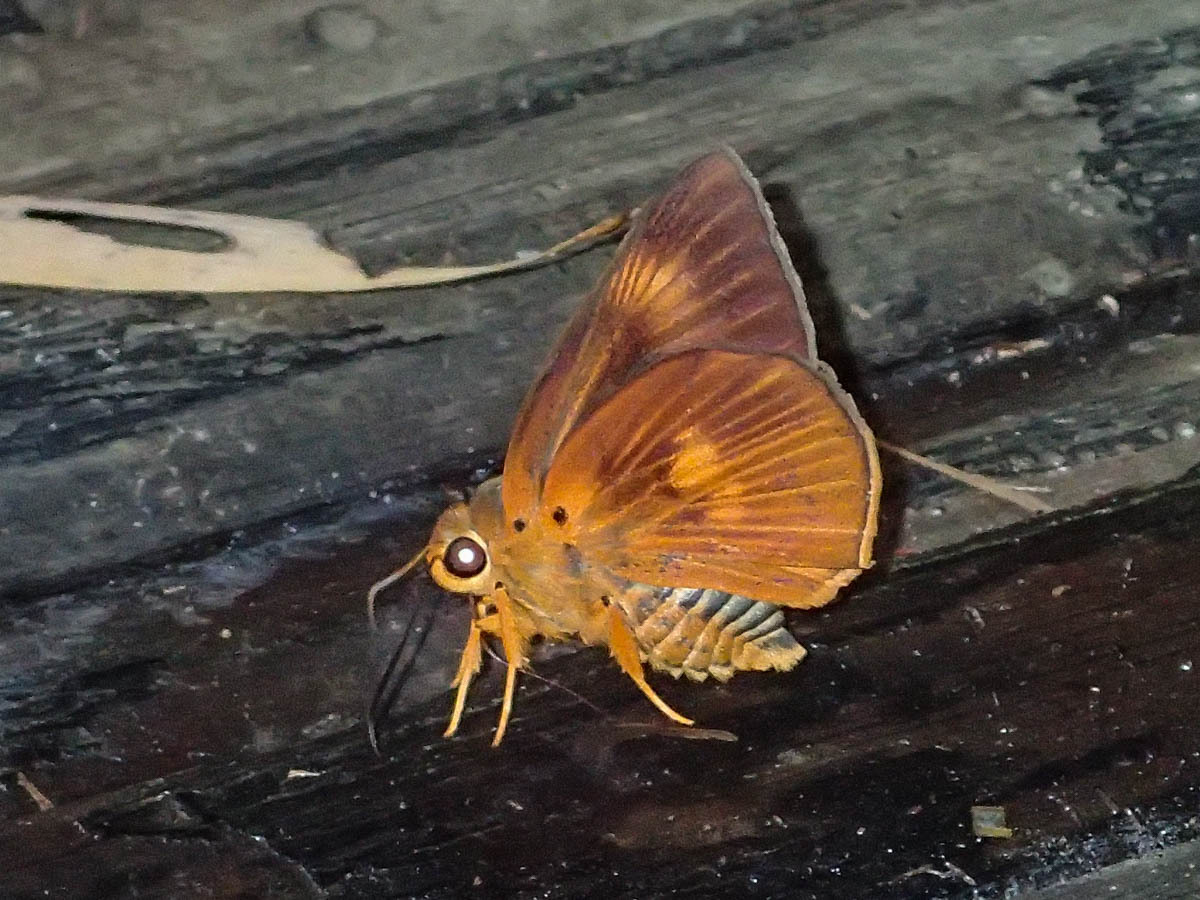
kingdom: Animalia
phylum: Arthropoda
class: Insecta
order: Lepidoptera
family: Hesperiidae
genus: Bibasis
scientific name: Bibasis etelka
